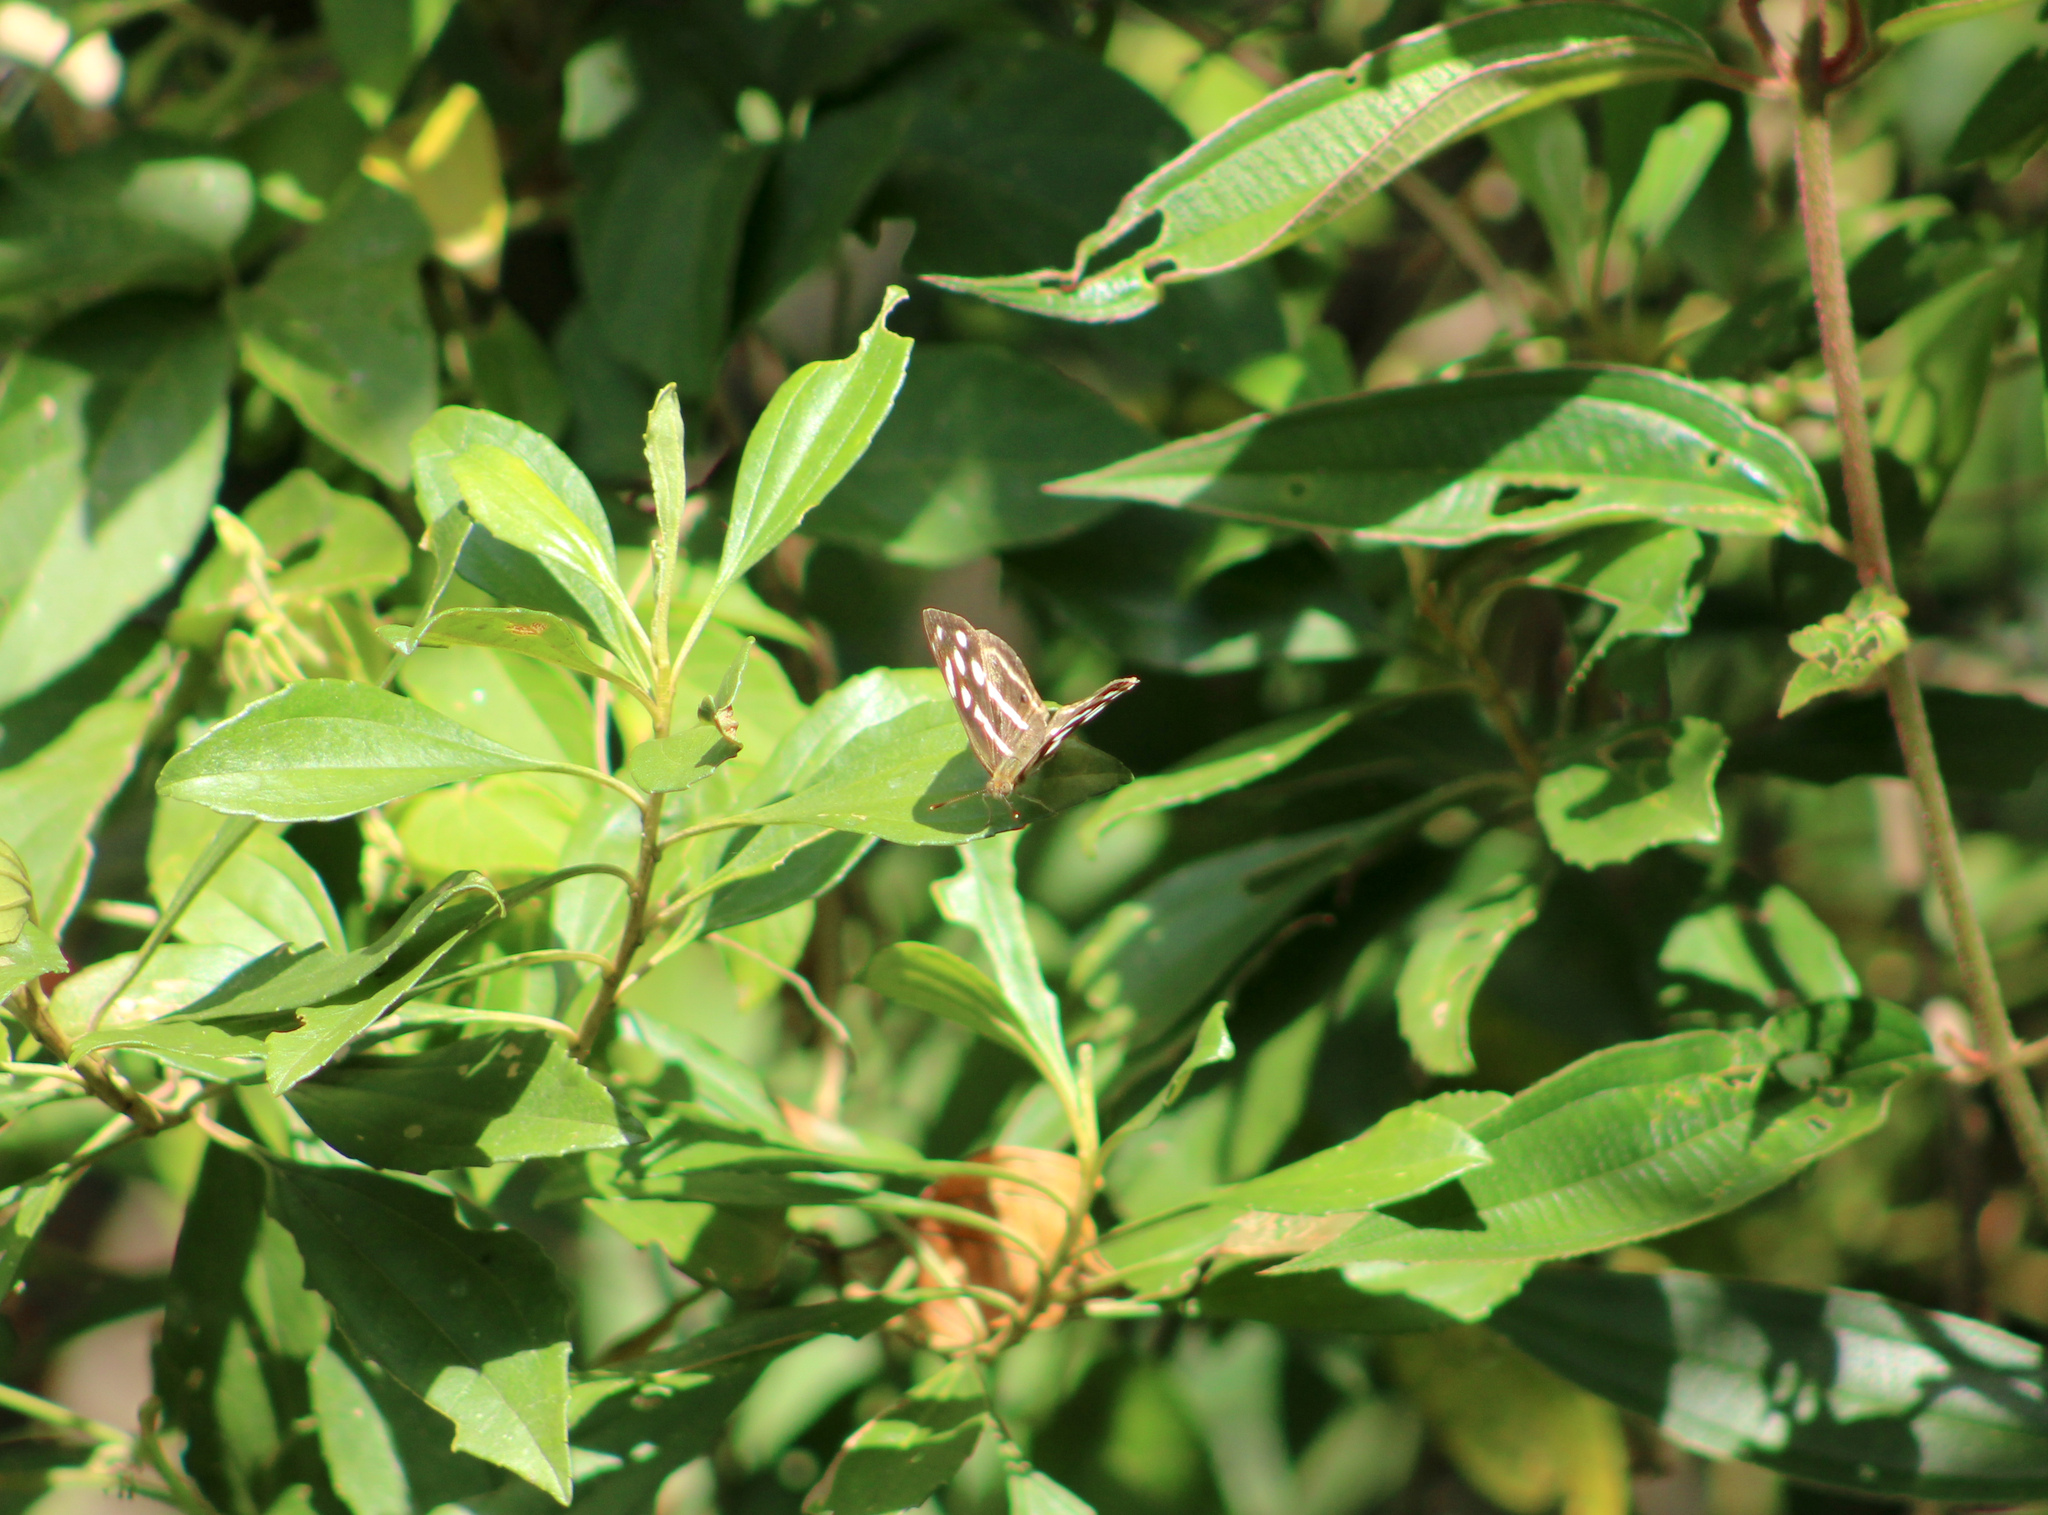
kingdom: Animalia
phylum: Arthropoda
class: Insecta
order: Lepidoptera
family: Nymphalidae
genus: Dynamine
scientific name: Dynamine mylitta
